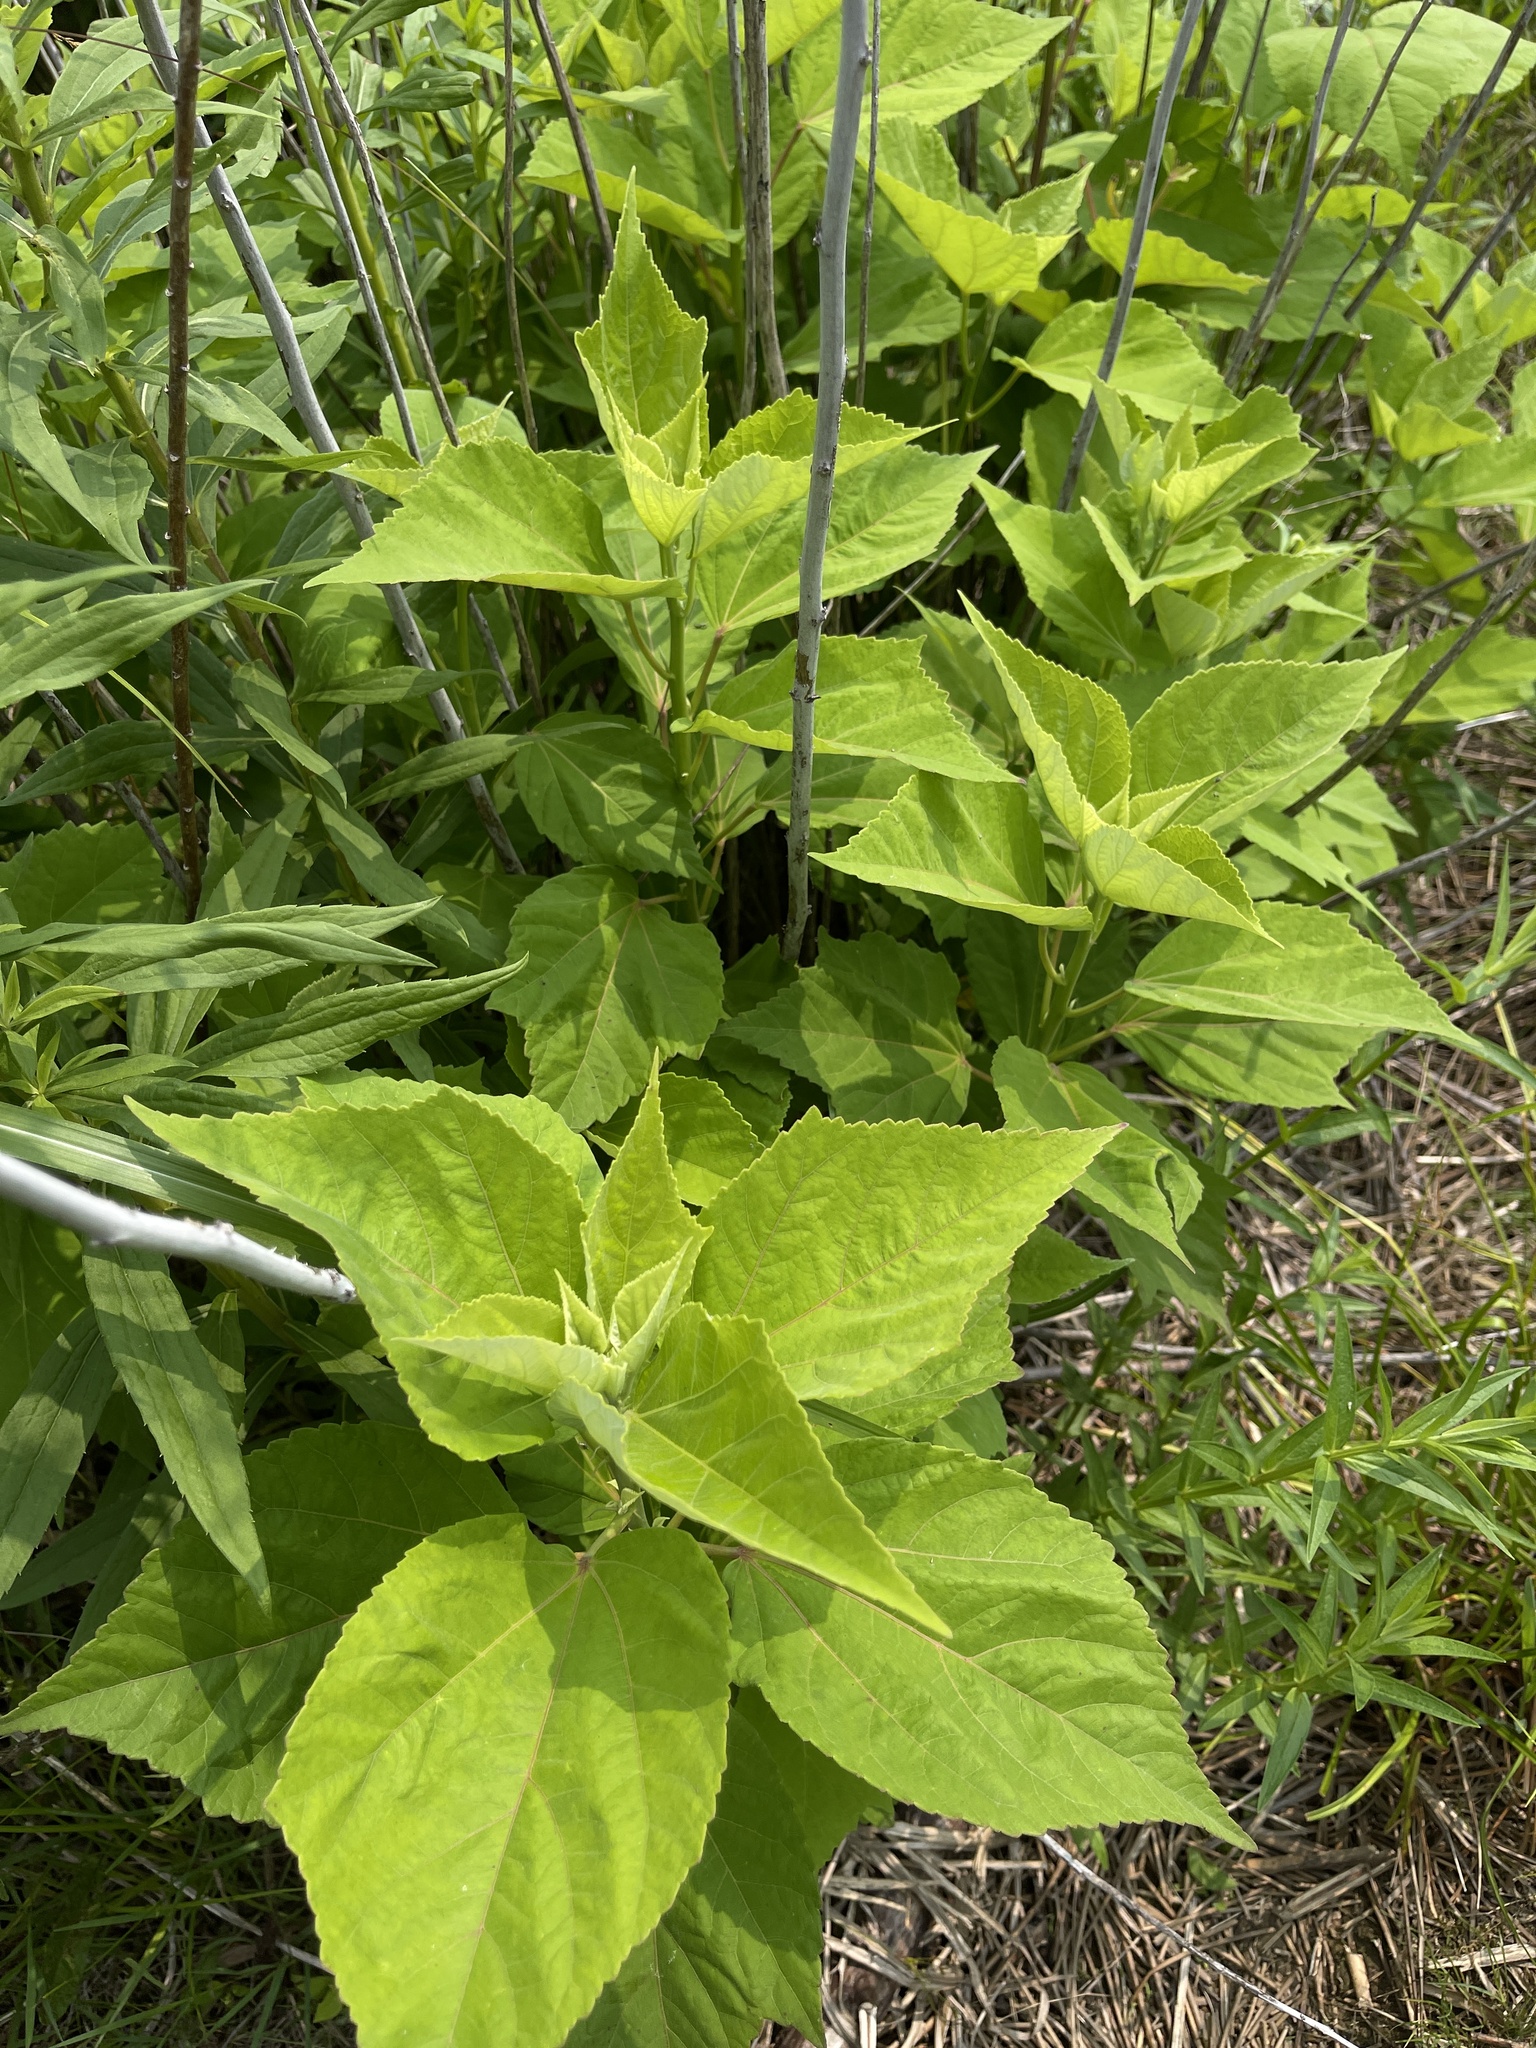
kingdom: Plantae
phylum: Tracheophyta
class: Magnoliopsida
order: Malvales
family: Malvaceae
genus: Hibiscus
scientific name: Hibiscus moscheutos
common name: Common rose-mallow
